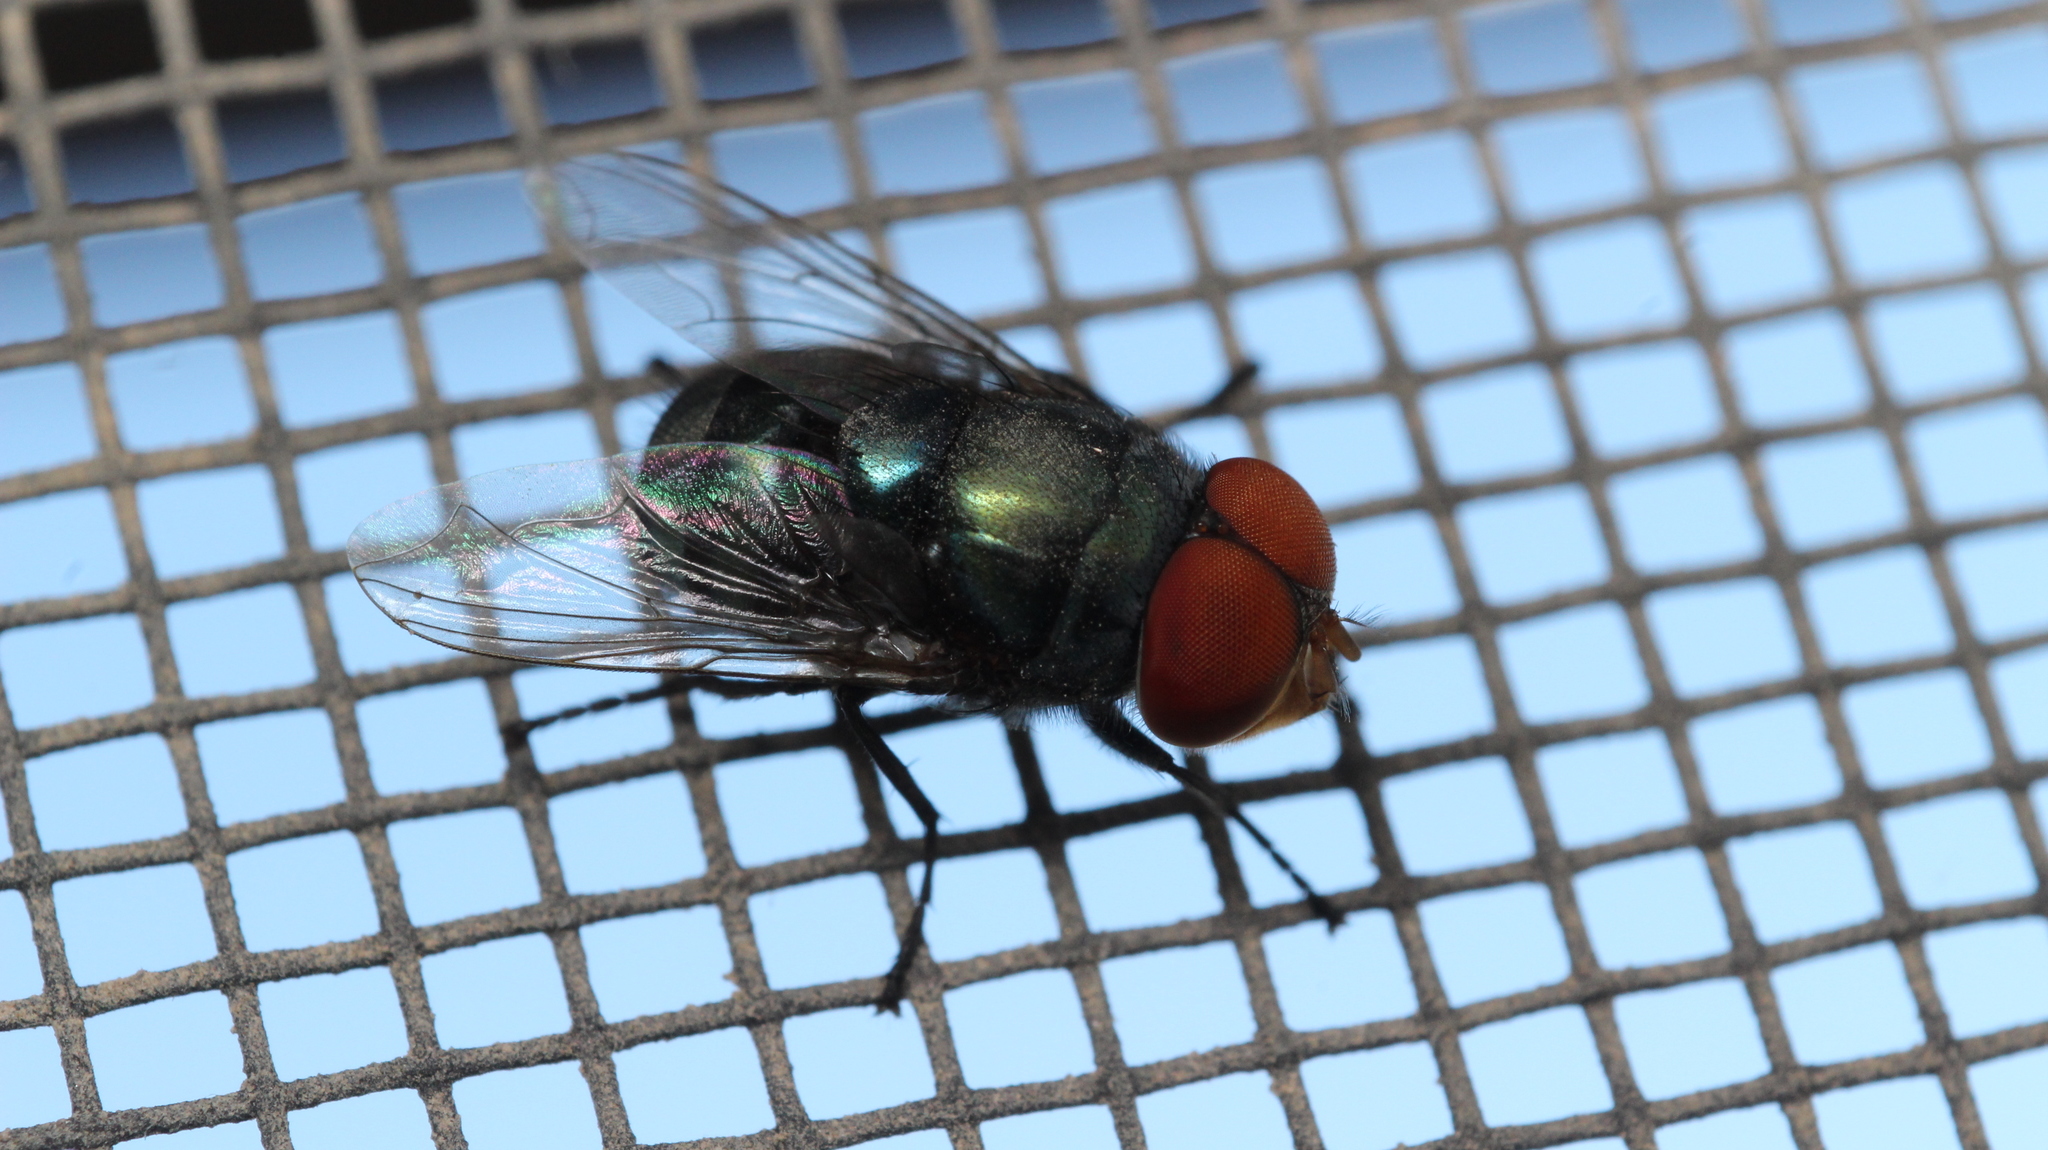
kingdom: Animalia
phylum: Arthropoda
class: Insecta
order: Diptera
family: Calliphoridae
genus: Chrysomya
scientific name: Chrysomya megacephala
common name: Blow fly
